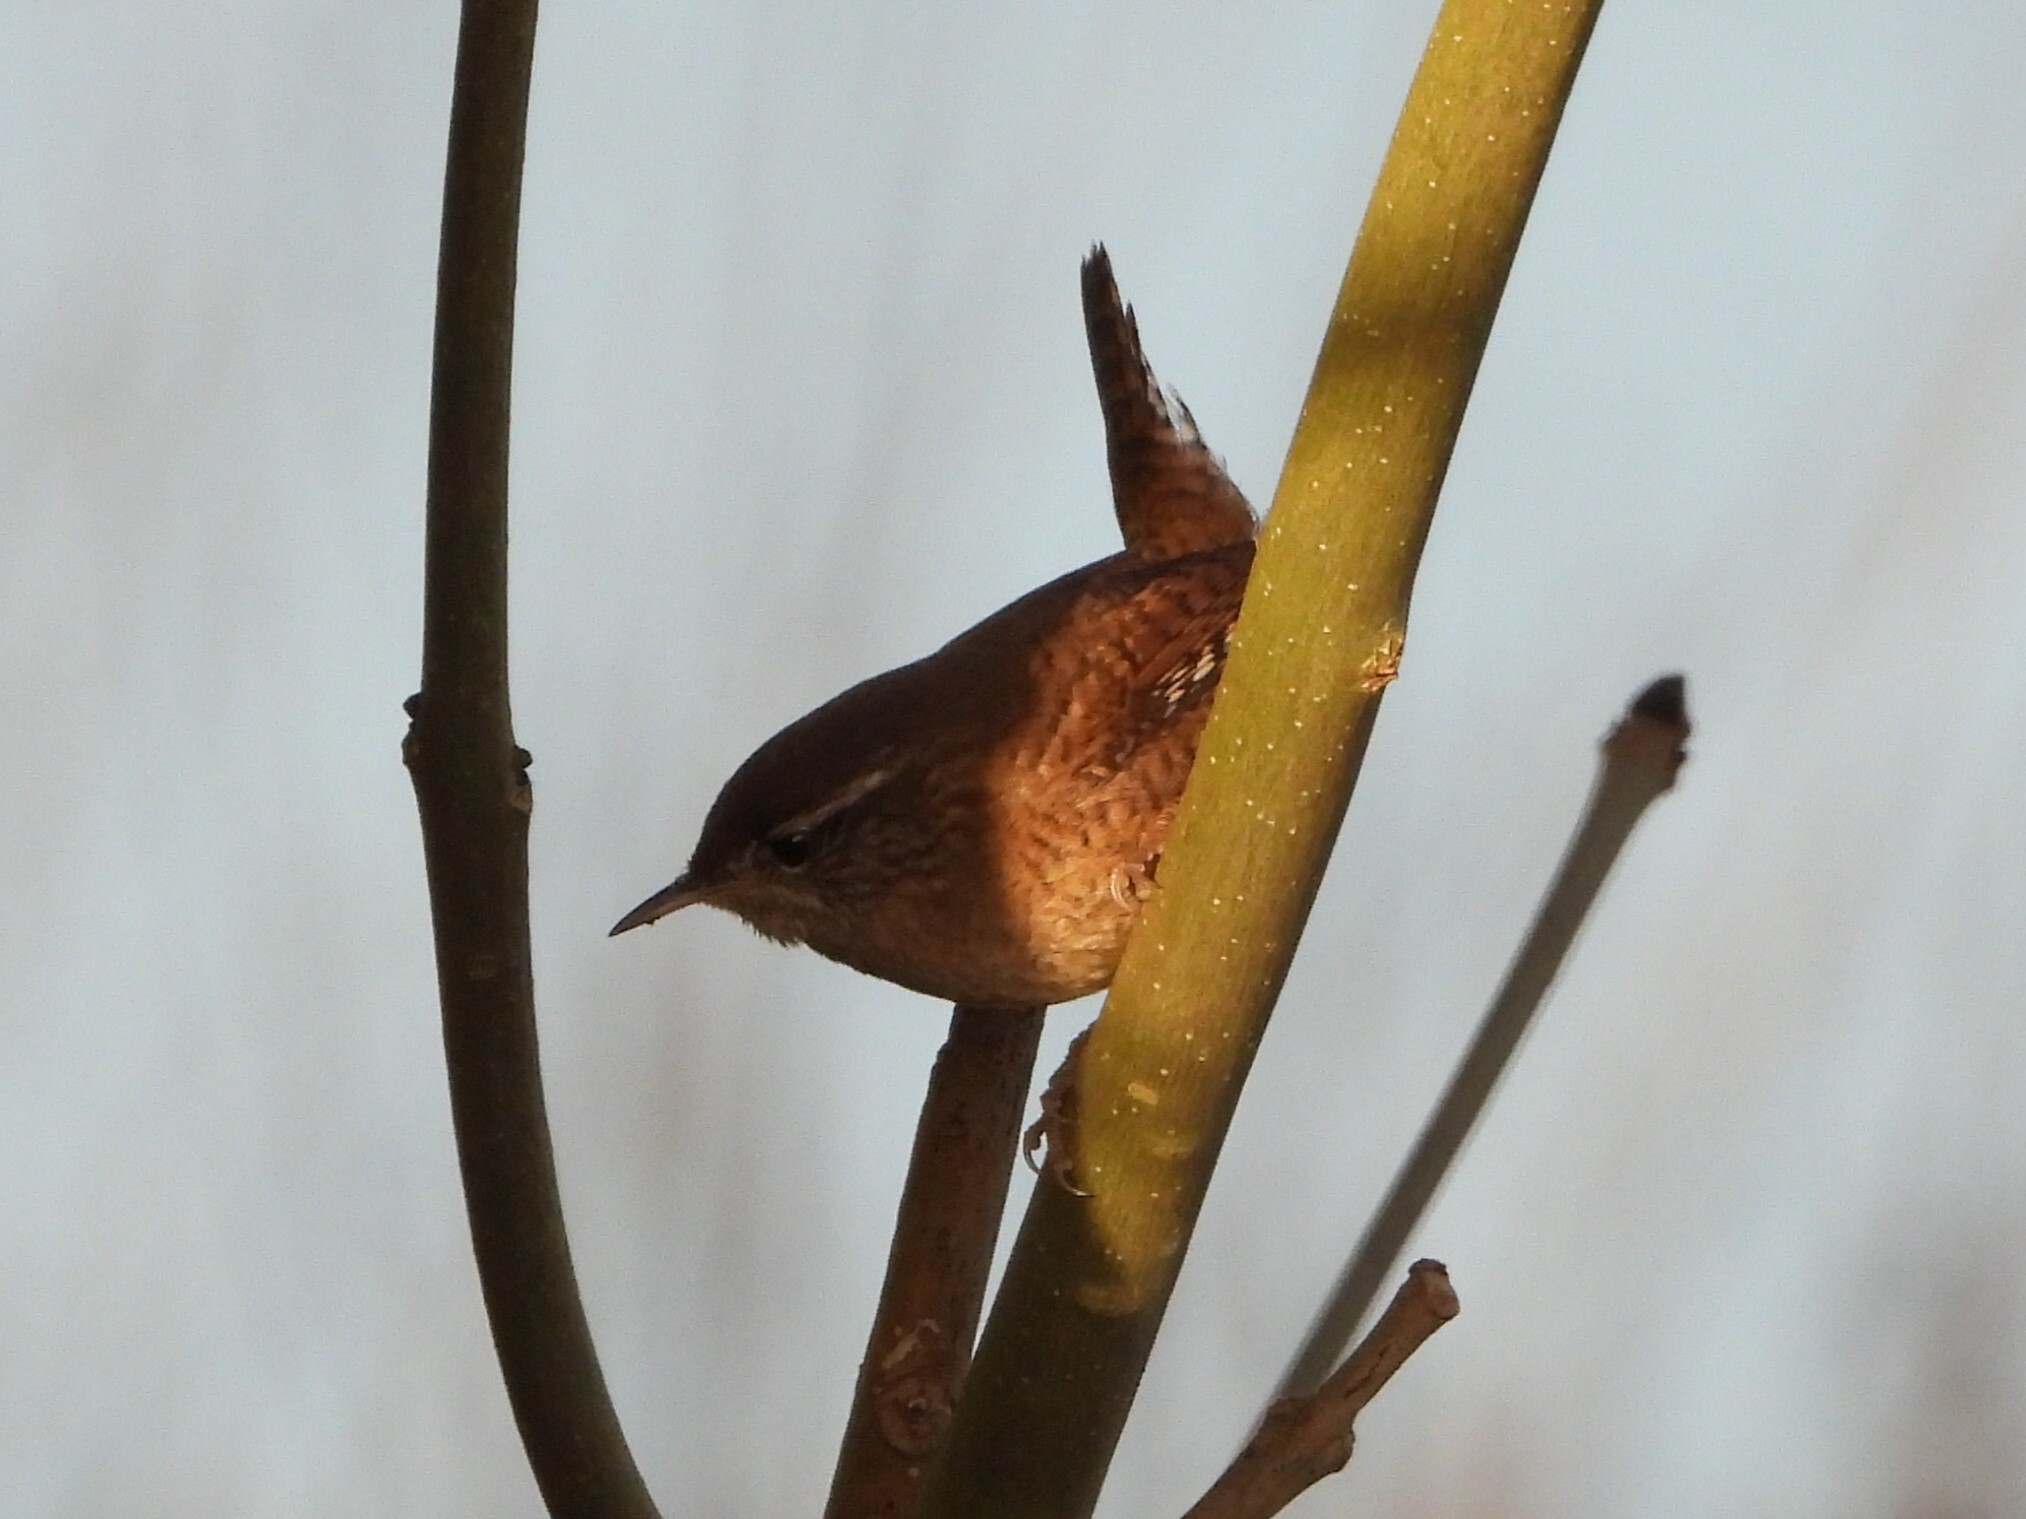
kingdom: Animalia
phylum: Chordata
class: Aves
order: Passeriformes
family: Troglodytidae
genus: Troglodytes
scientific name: Troglodytes troglodytes
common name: Eurasian wren
